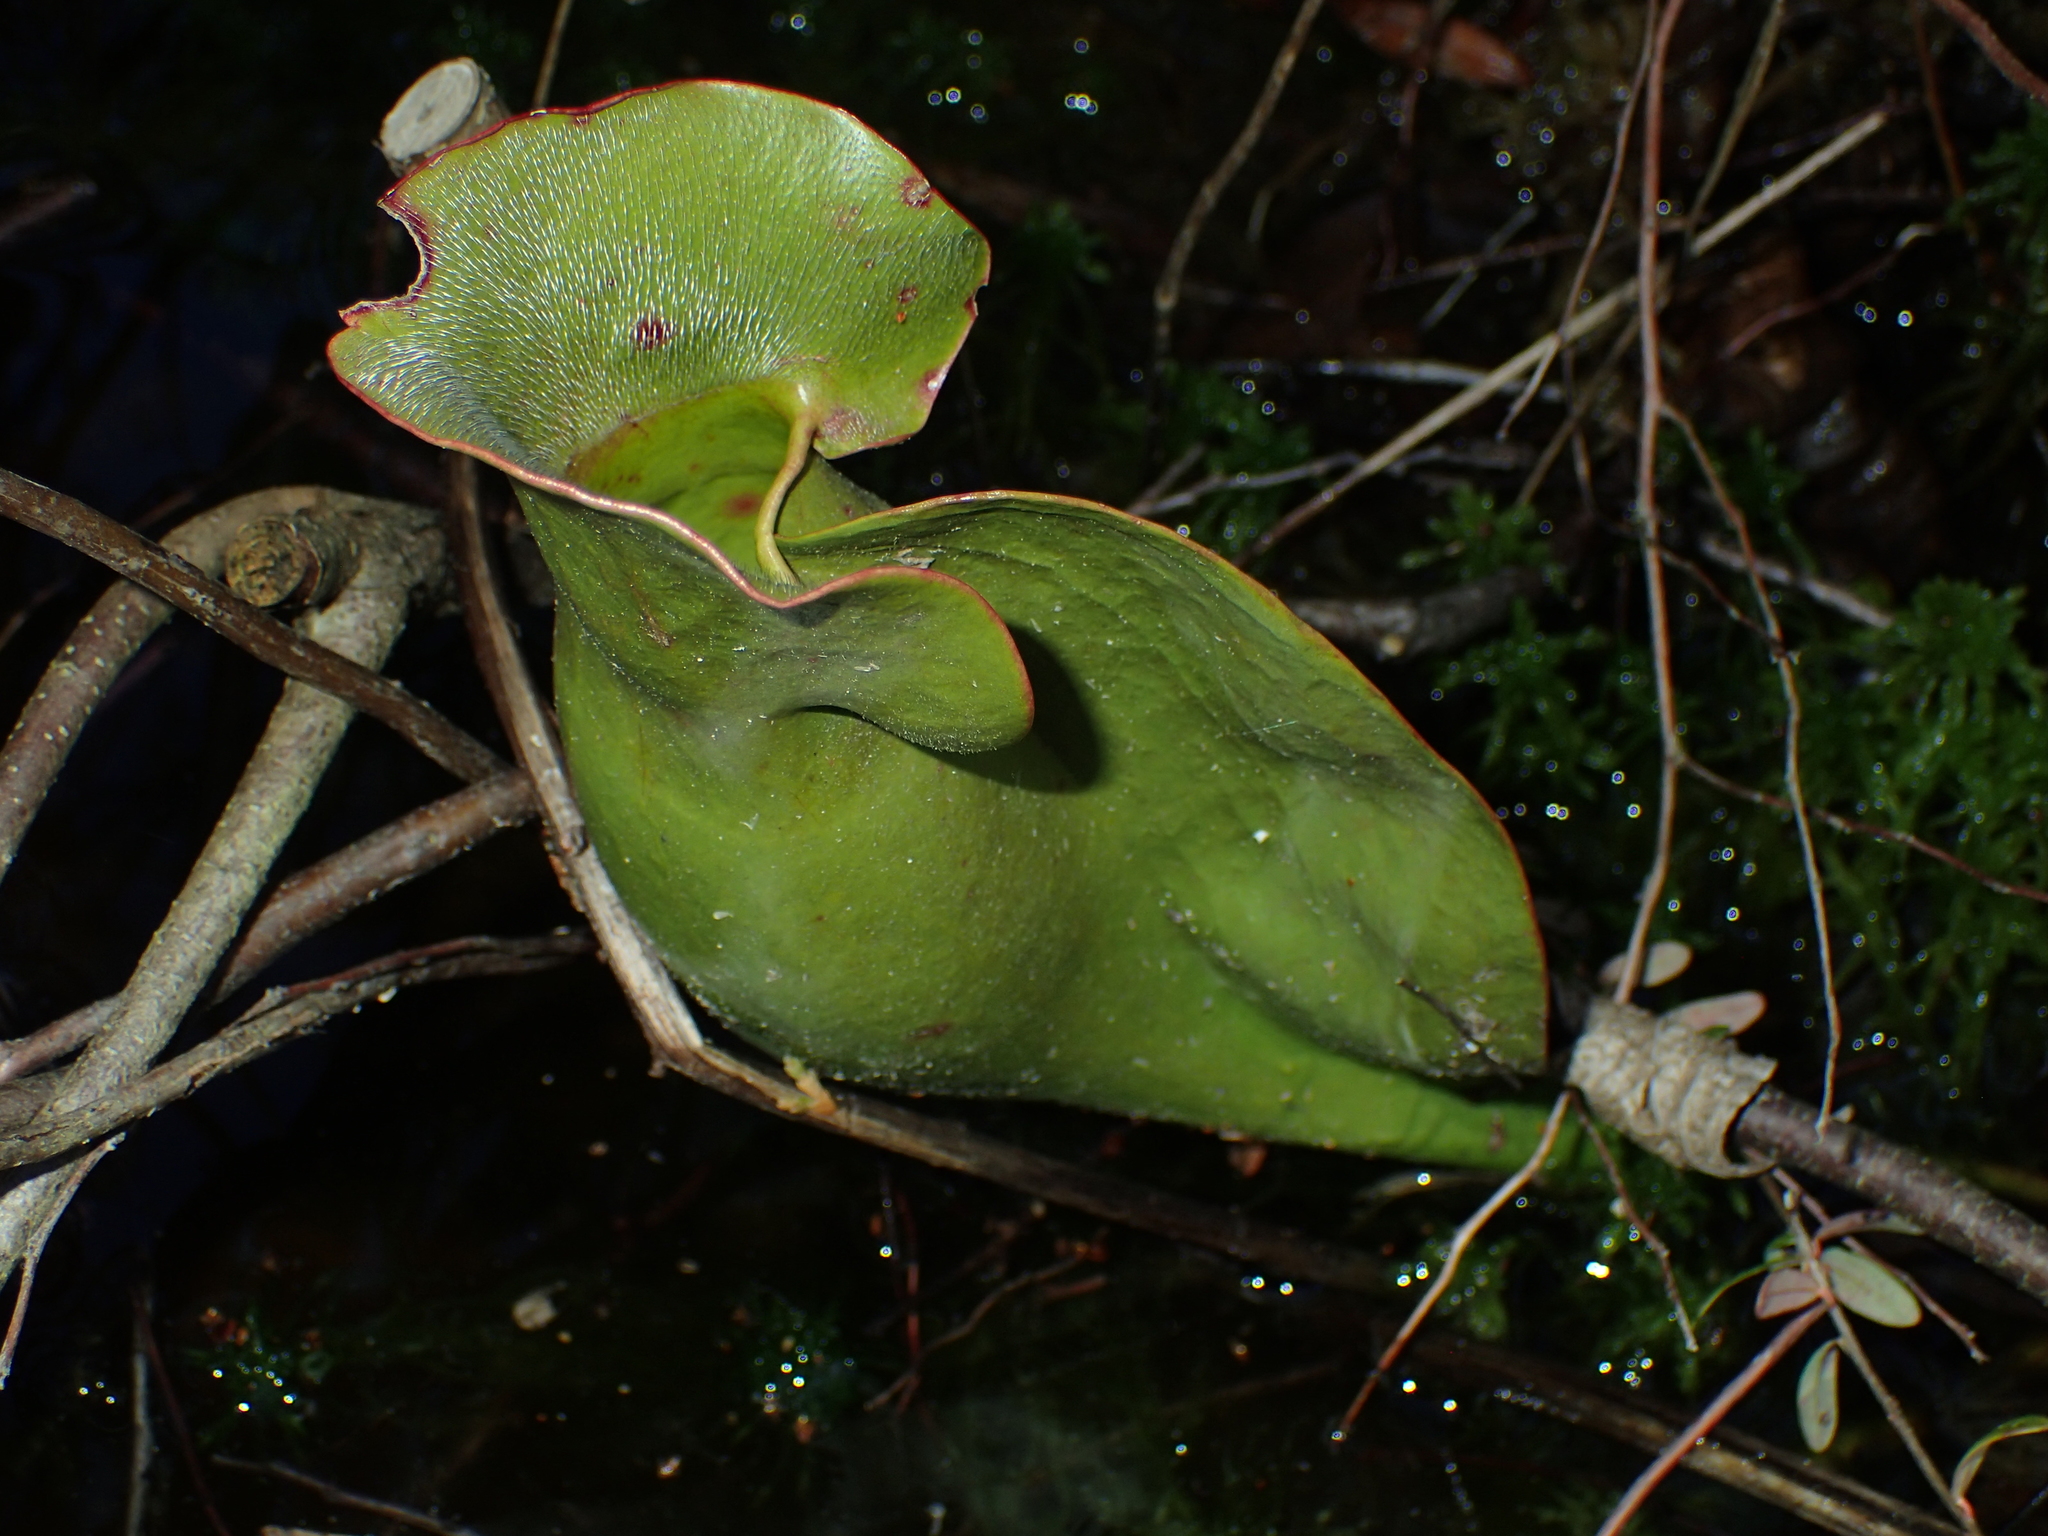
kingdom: Plantae
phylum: Tracheophyta
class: Magnoliopsida
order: Ericales
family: Sarraceniaceae
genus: Sarracenia
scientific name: Sarracenia purpurea
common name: Pitcherplant
